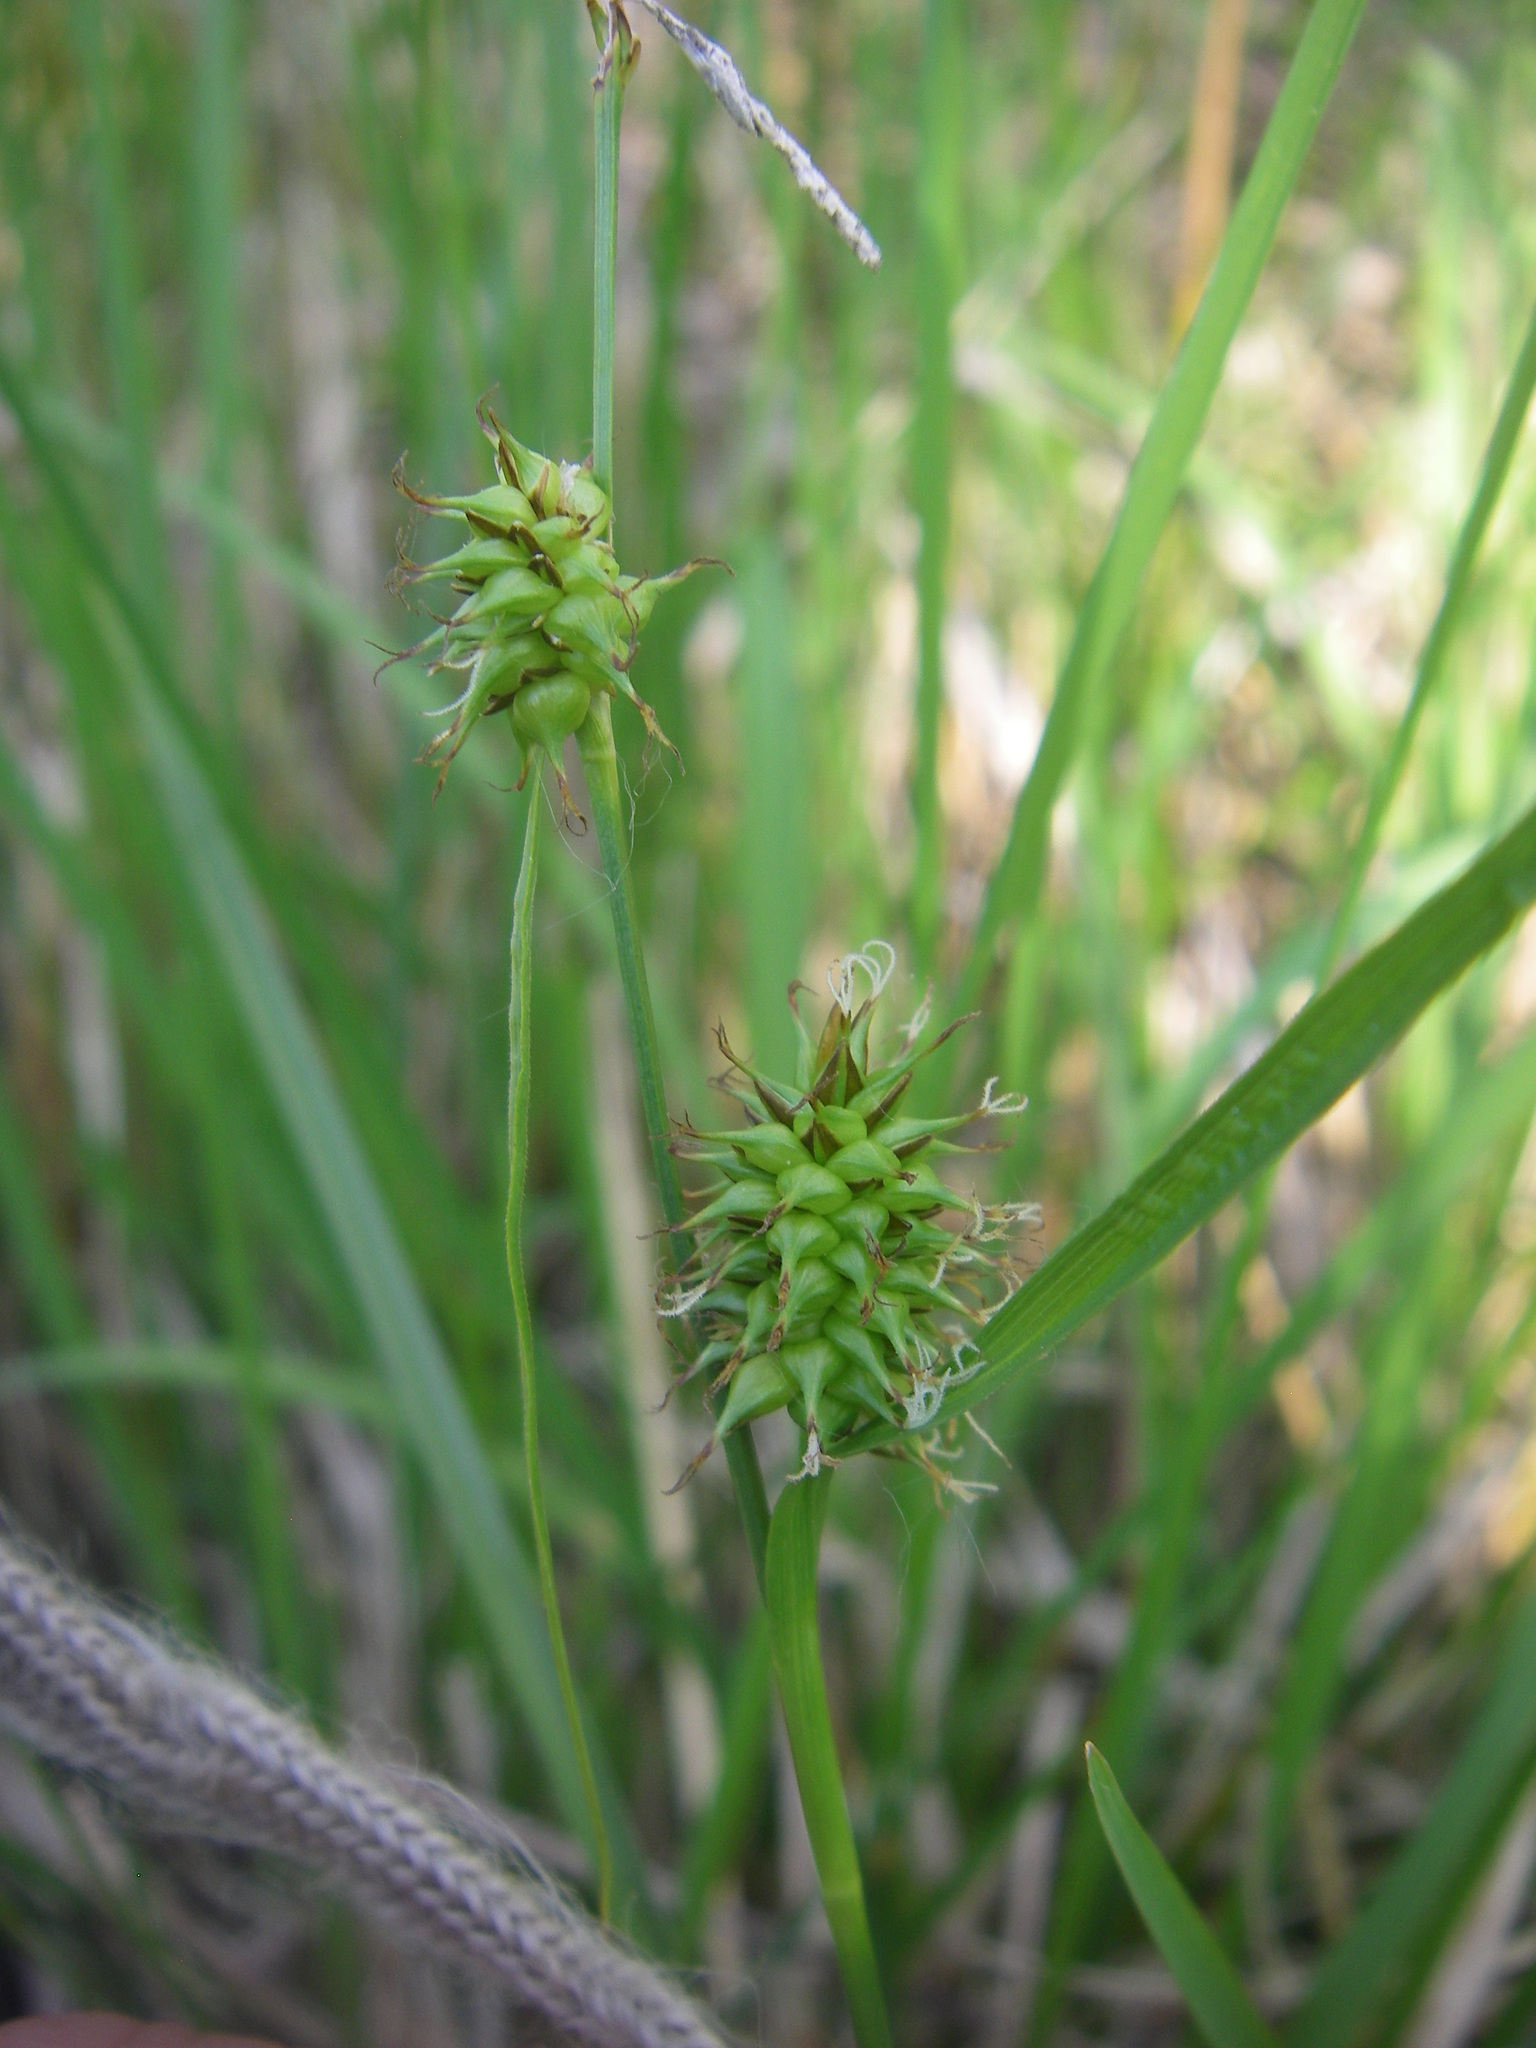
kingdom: Plantae
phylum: Tracheophyta
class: Liliopsida
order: Poales
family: Cyperaceae
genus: Carex
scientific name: Carex lepidocarpa
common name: Long-stalked yellow-sedge
